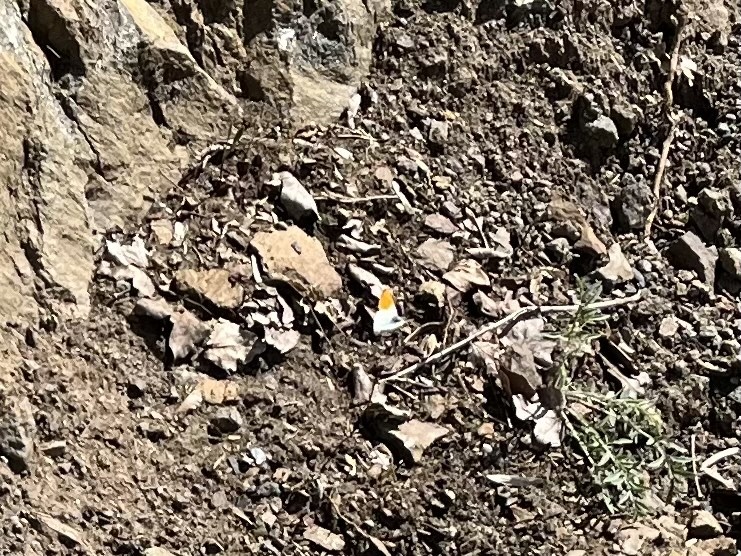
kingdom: Animalia
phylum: Arthropoda
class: Insecta
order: Lepidoptera
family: Pieridae
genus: Anthocharis
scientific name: Anthocharis cardamines
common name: Orange-tip
